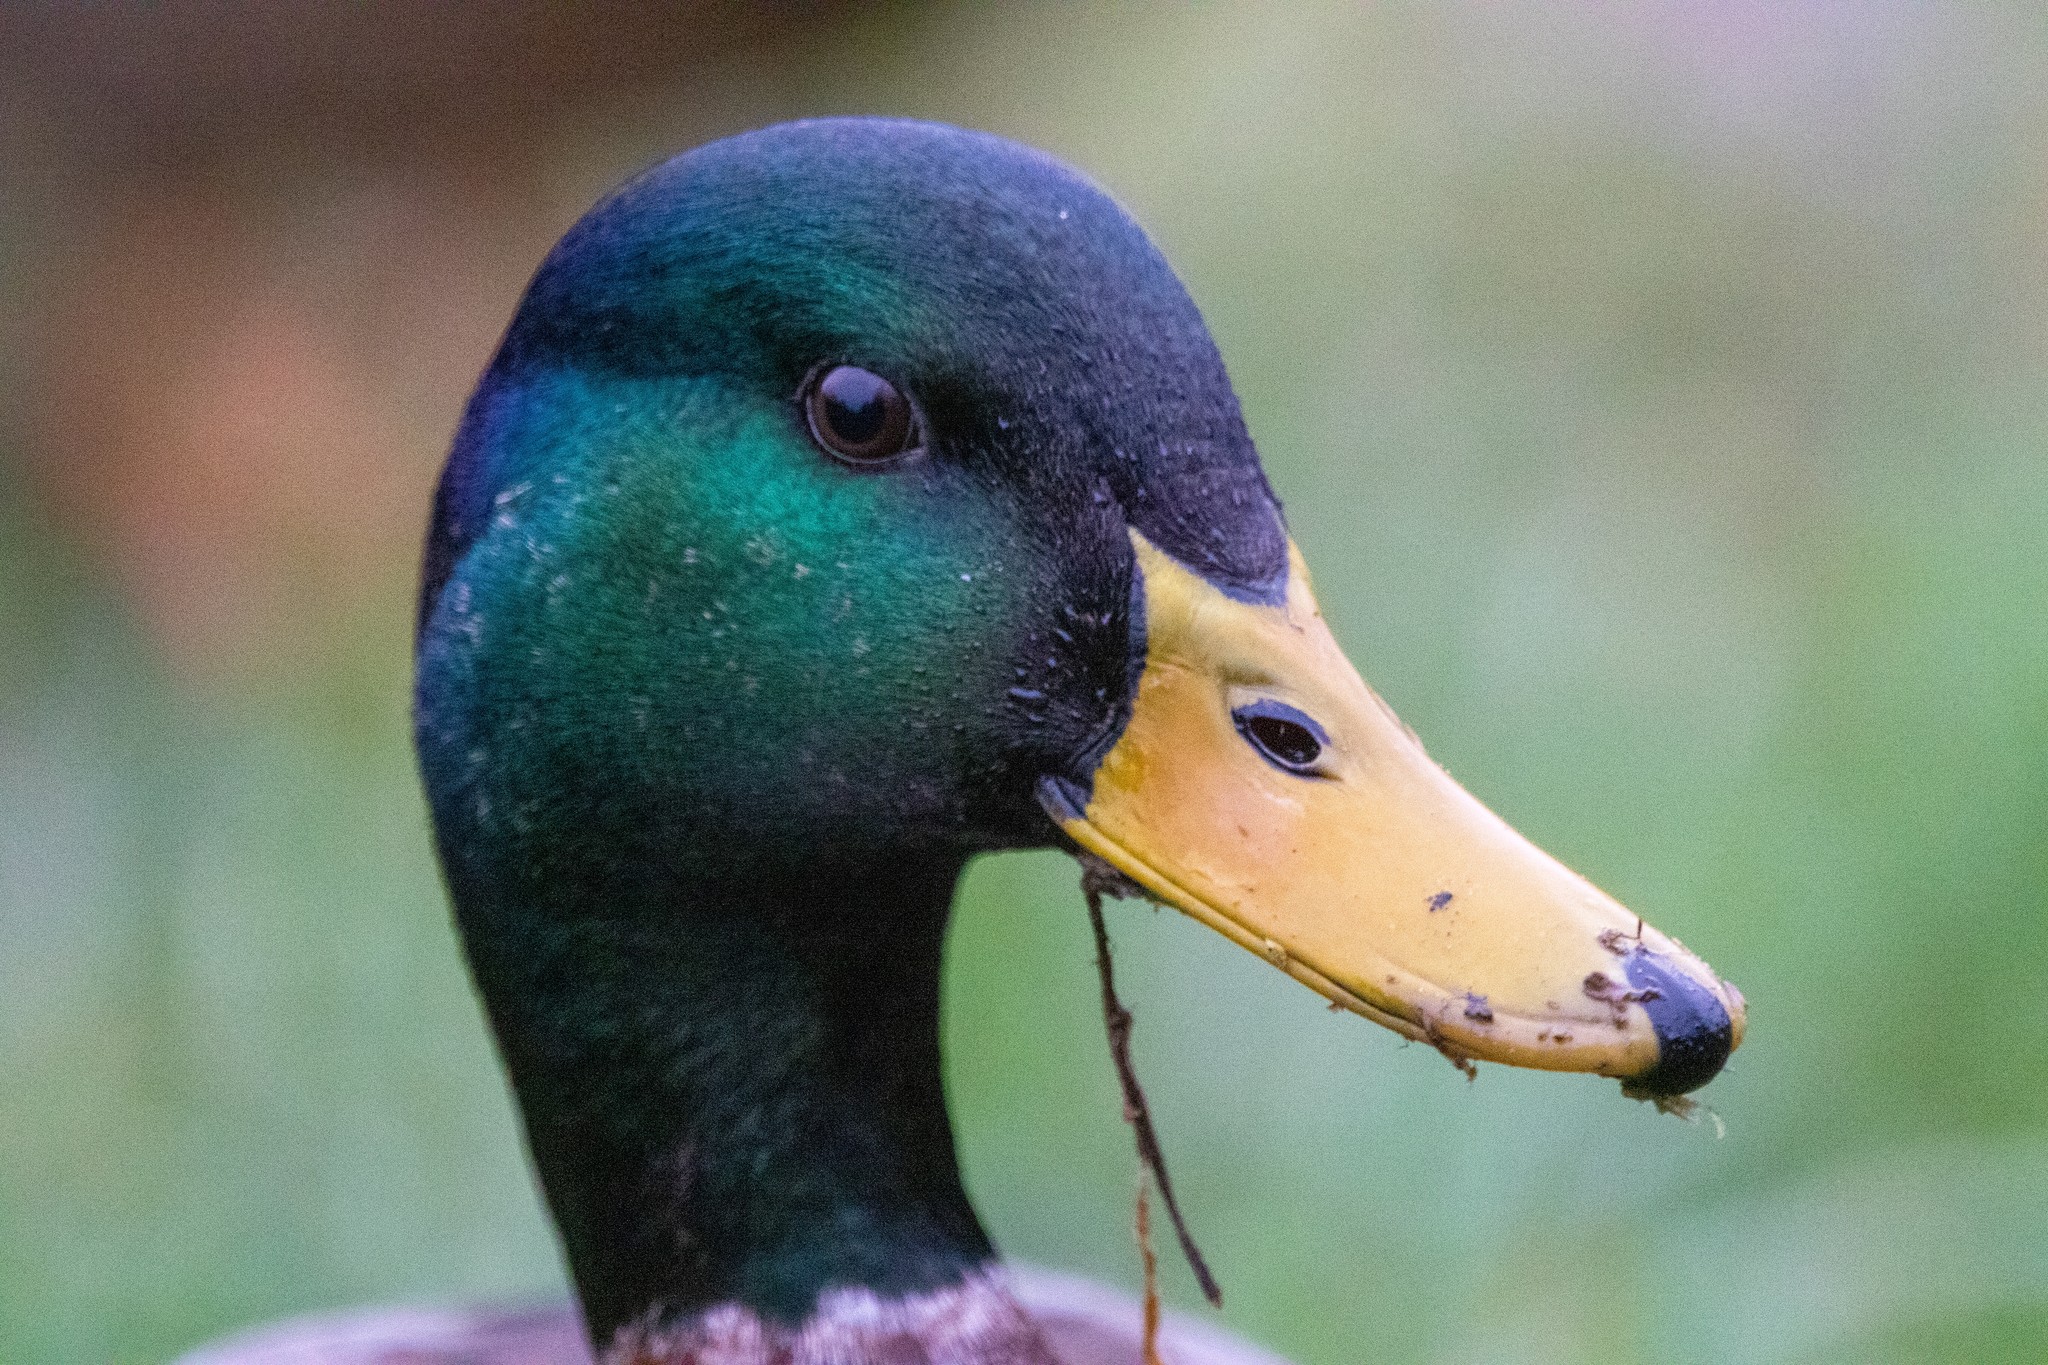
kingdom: Animalia
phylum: Chordata
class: Aves
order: Anseriformes
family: Anatidae
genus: Anas
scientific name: Anas platyrhynchos
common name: Mallard
